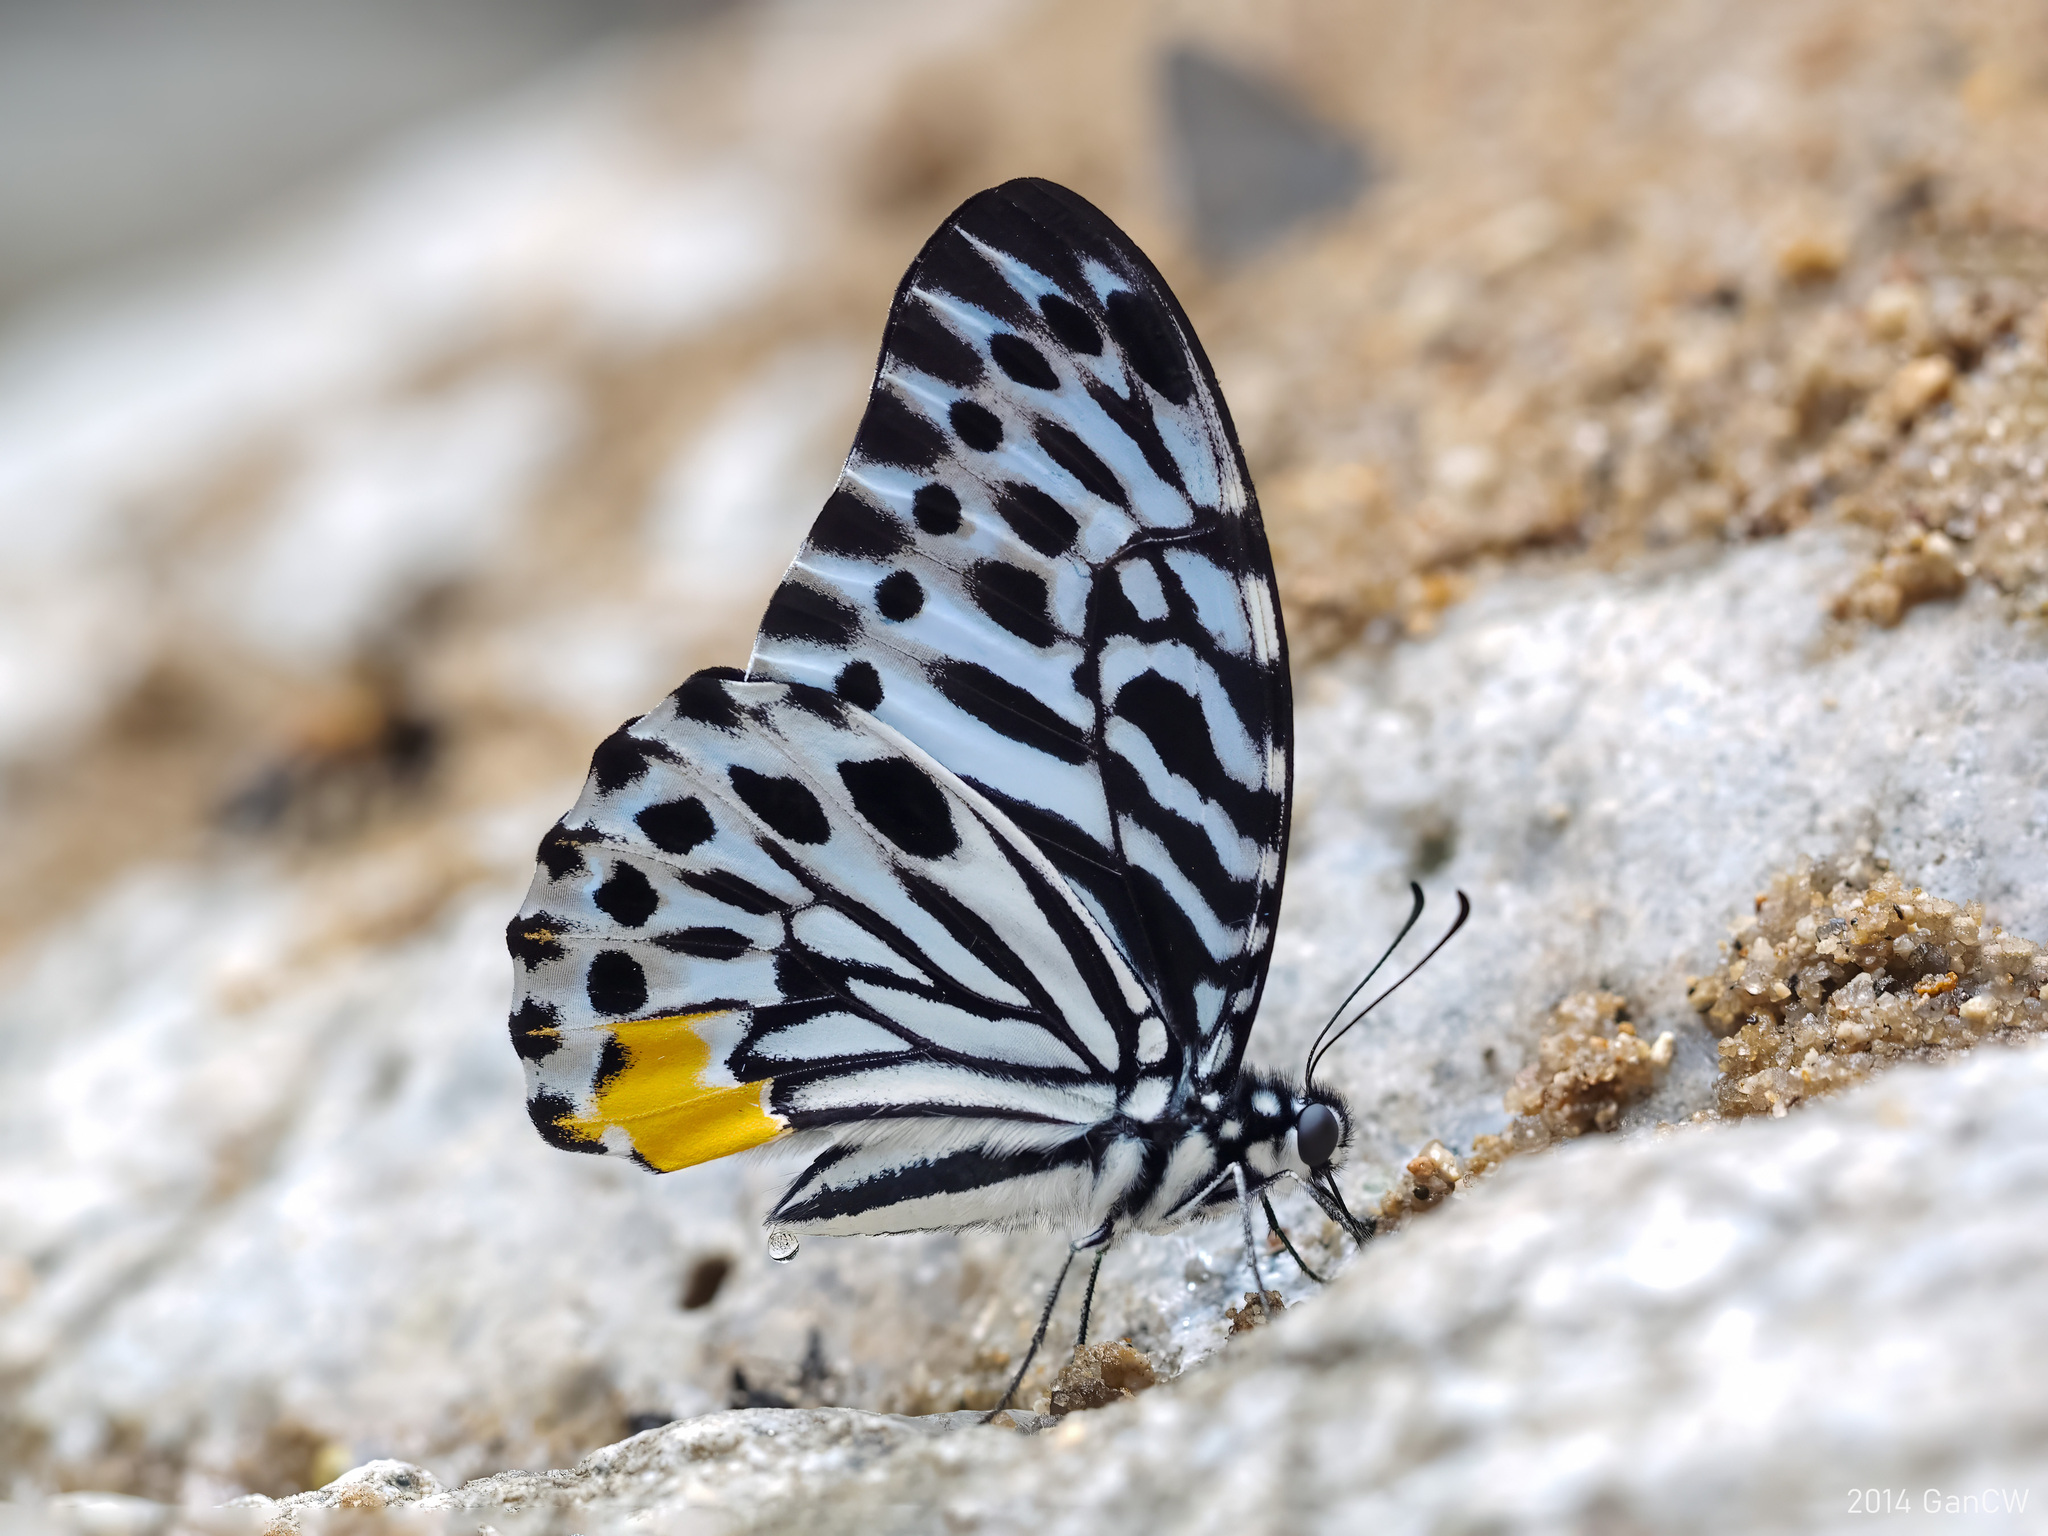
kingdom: Animalia
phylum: Arthropoda
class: Insecta
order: Lepidoptera
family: Papilionidae
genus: Graphium
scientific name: Graphium delesserti
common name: Malayan zebra
